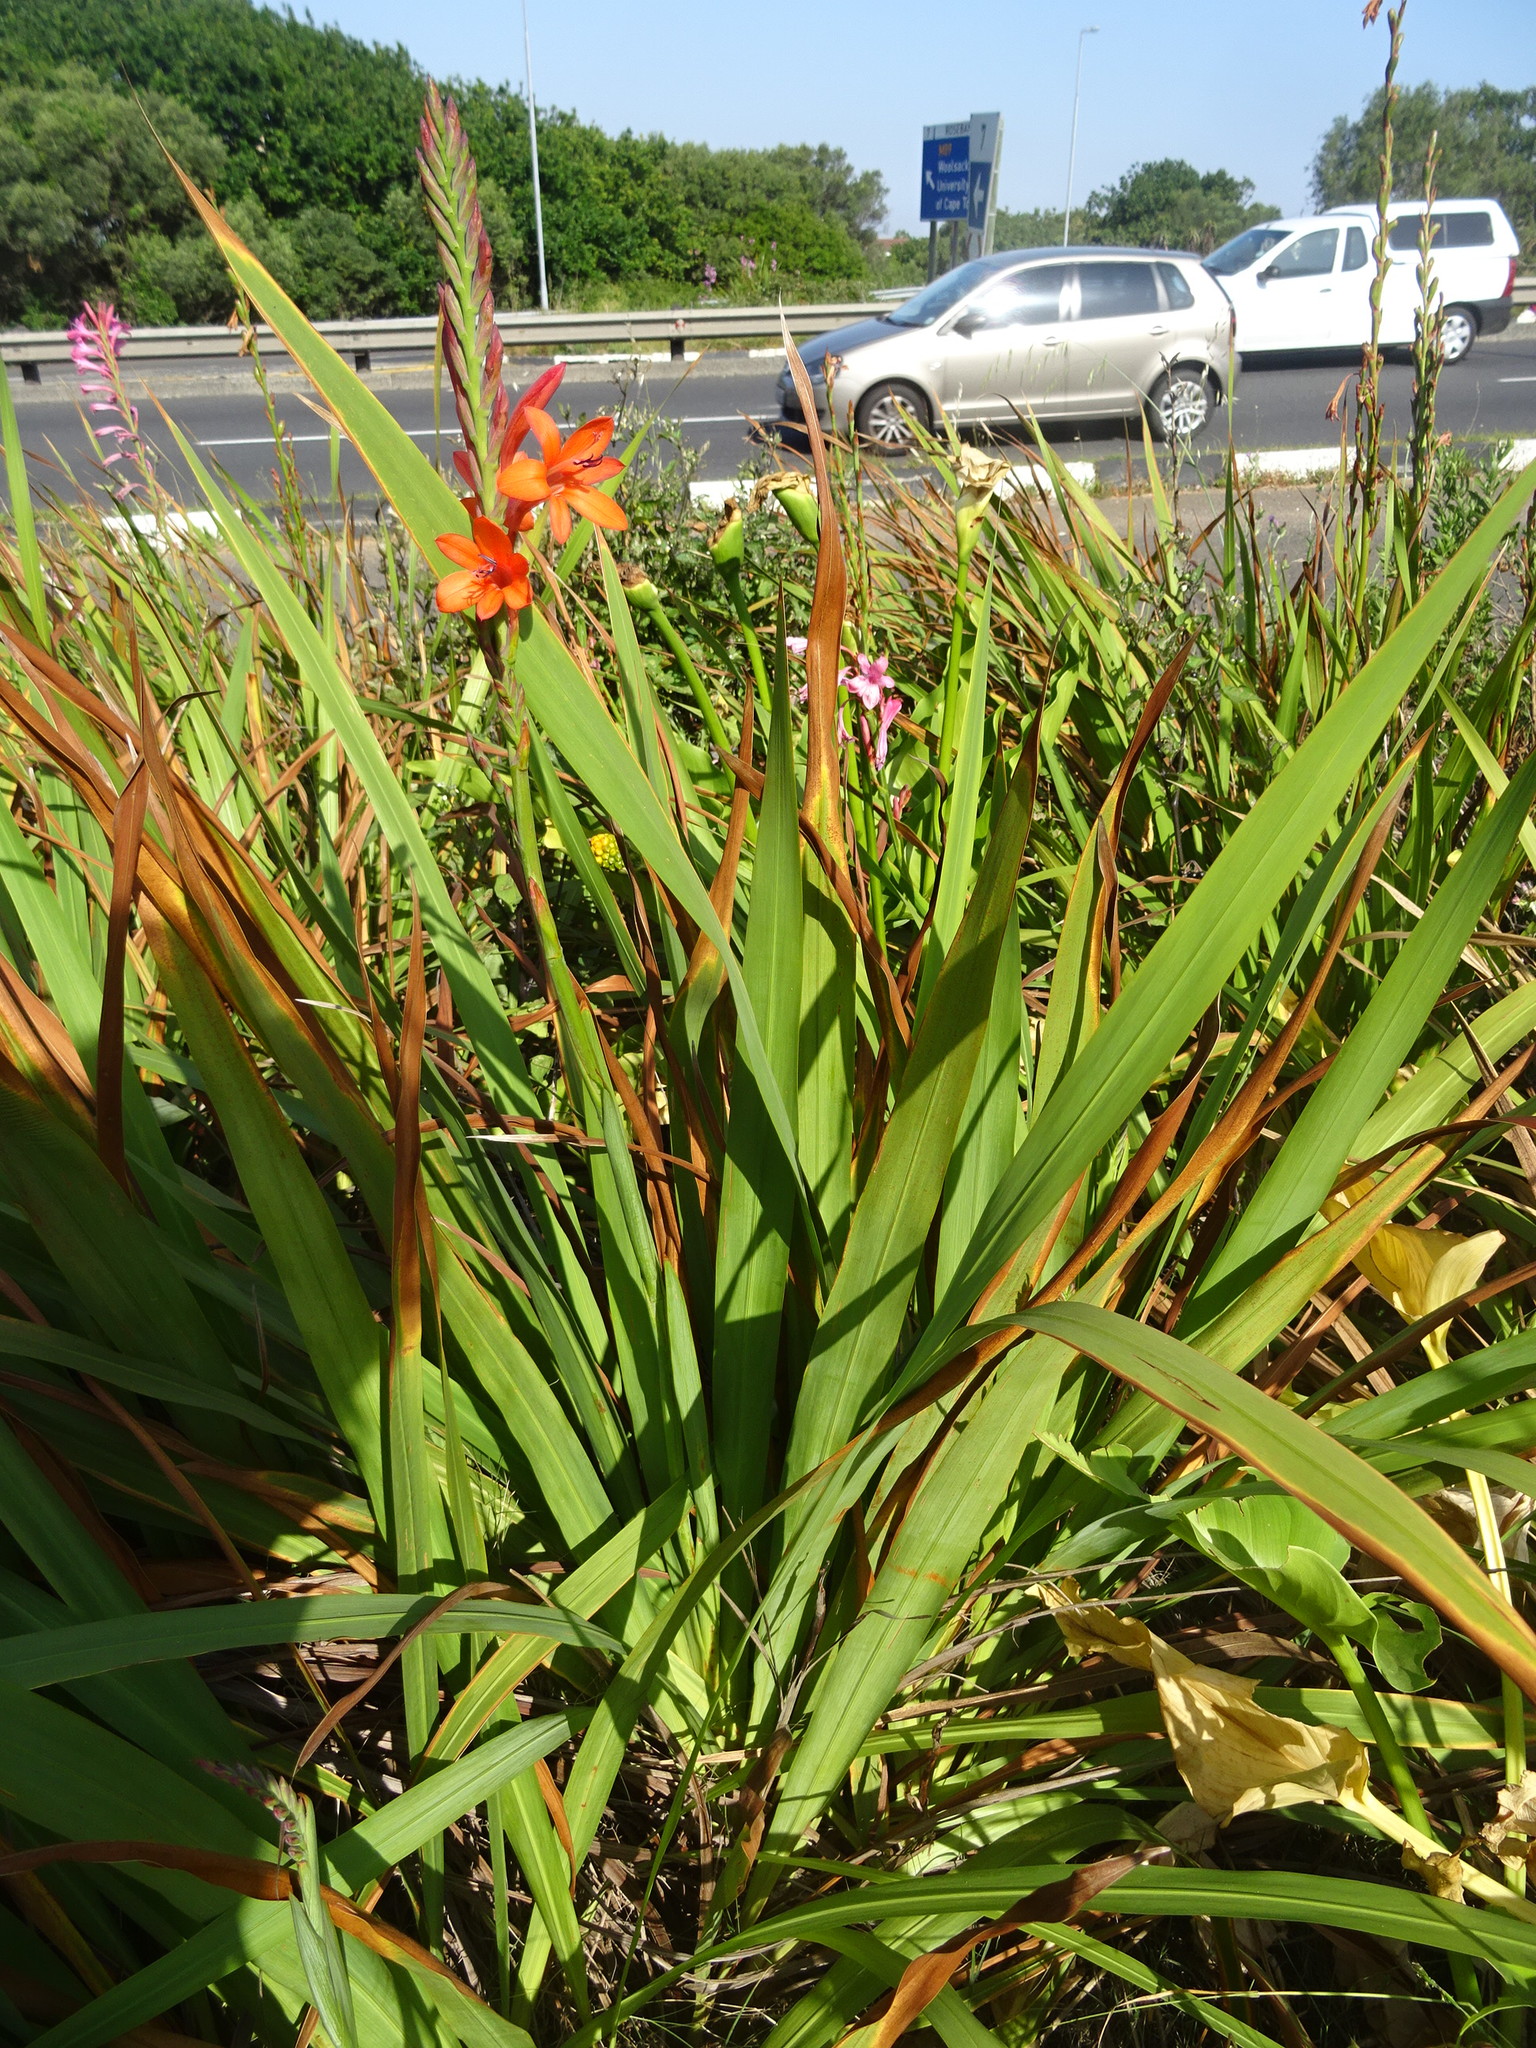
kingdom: Plantae
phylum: Tracheophyta
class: Liliopsida
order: Asparagales
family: Iridaceae
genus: Watsonia
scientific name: Watsonia meriana
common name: Bulbil bugle-lily
